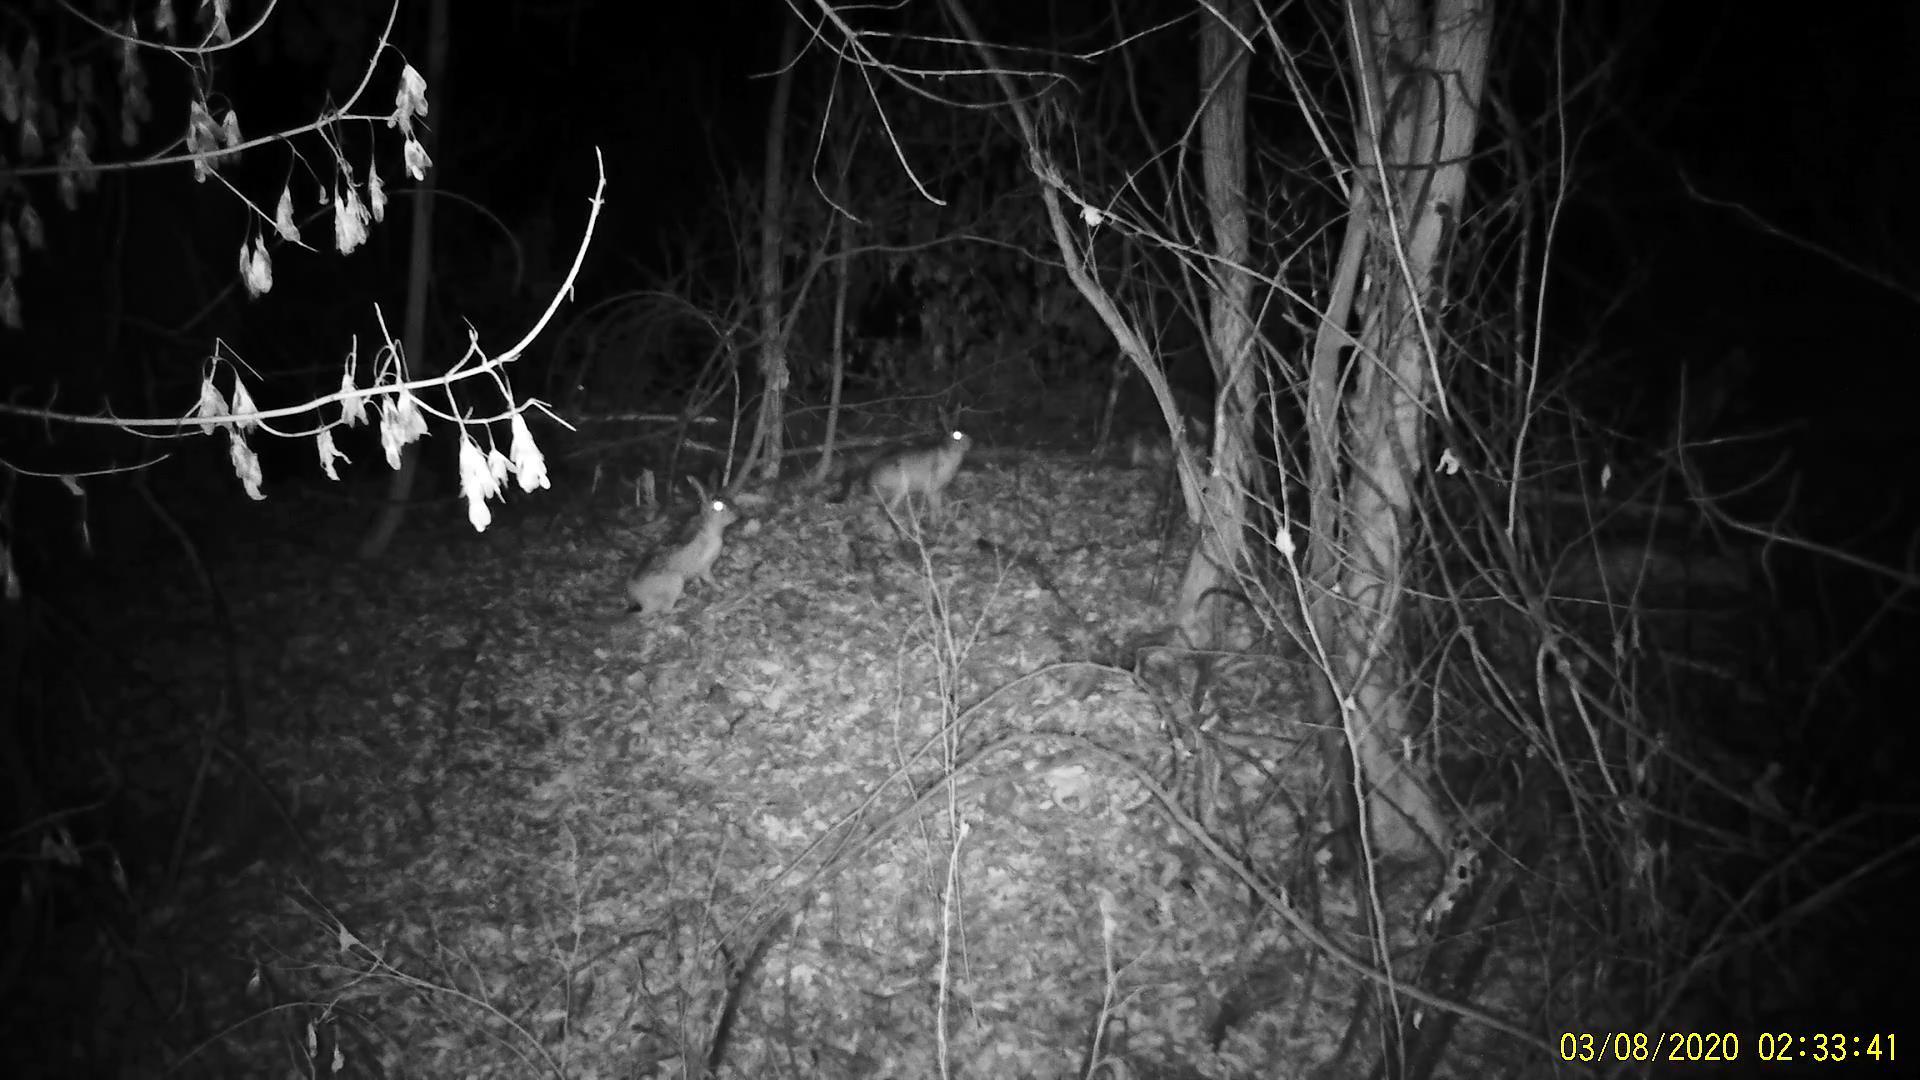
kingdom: Animalia
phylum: Chordata
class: Mammalia
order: Lagomorpha
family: Leporidae
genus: Lepus
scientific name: Lepus europaeus
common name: European hare
